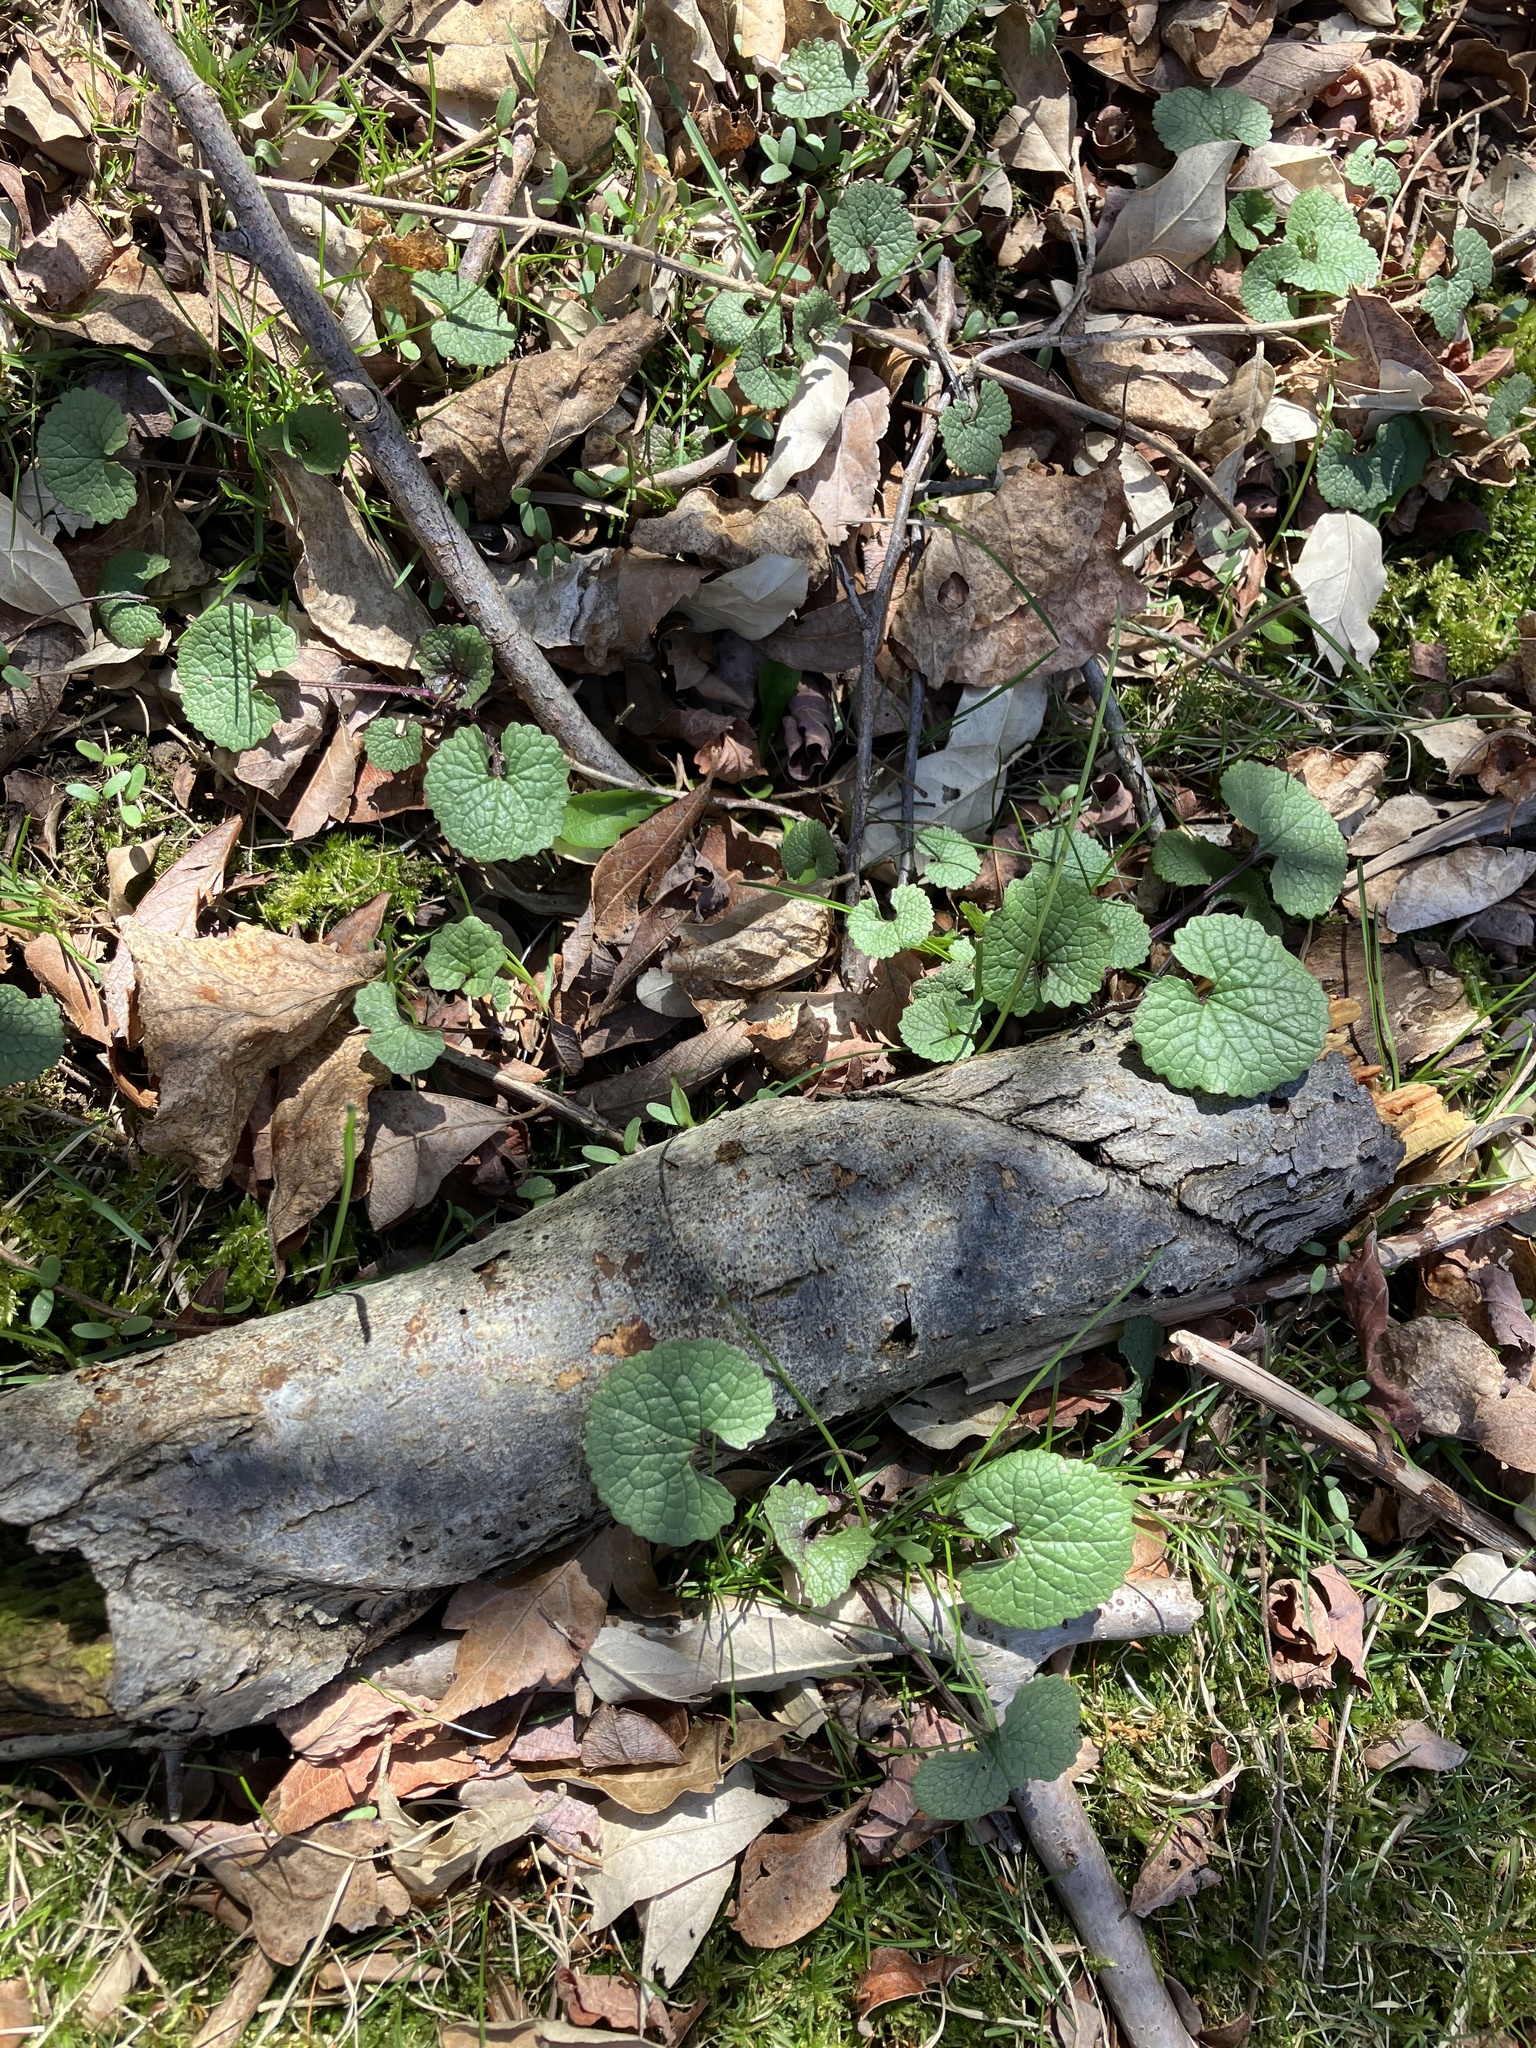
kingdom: Plantae
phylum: Tracheophyta
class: Magnoliopsida
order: Brassicales
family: Brassicaceae
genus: Alliaria
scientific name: Alliaria petiolata
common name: Garlic mustard
